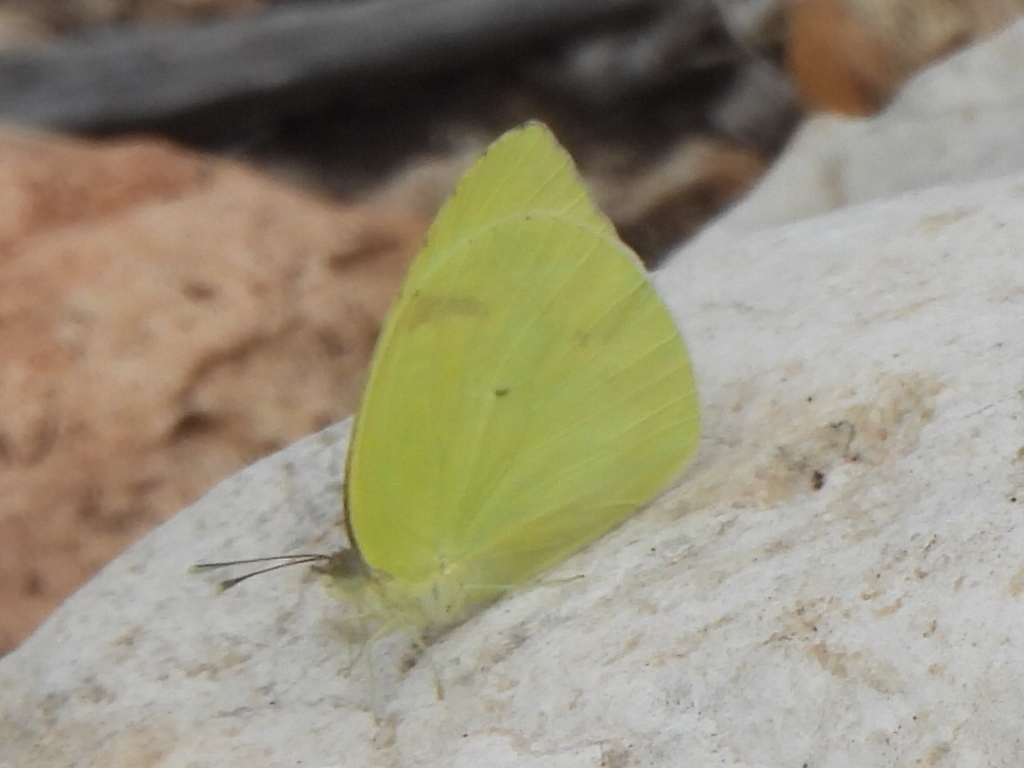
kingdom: Animalia
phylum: Arthropoda
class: Insecta
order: Lepidoptera
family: Pieridae
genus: Kricogonia
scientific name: Kricogonia lyside
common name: Guayacan sulphur,
